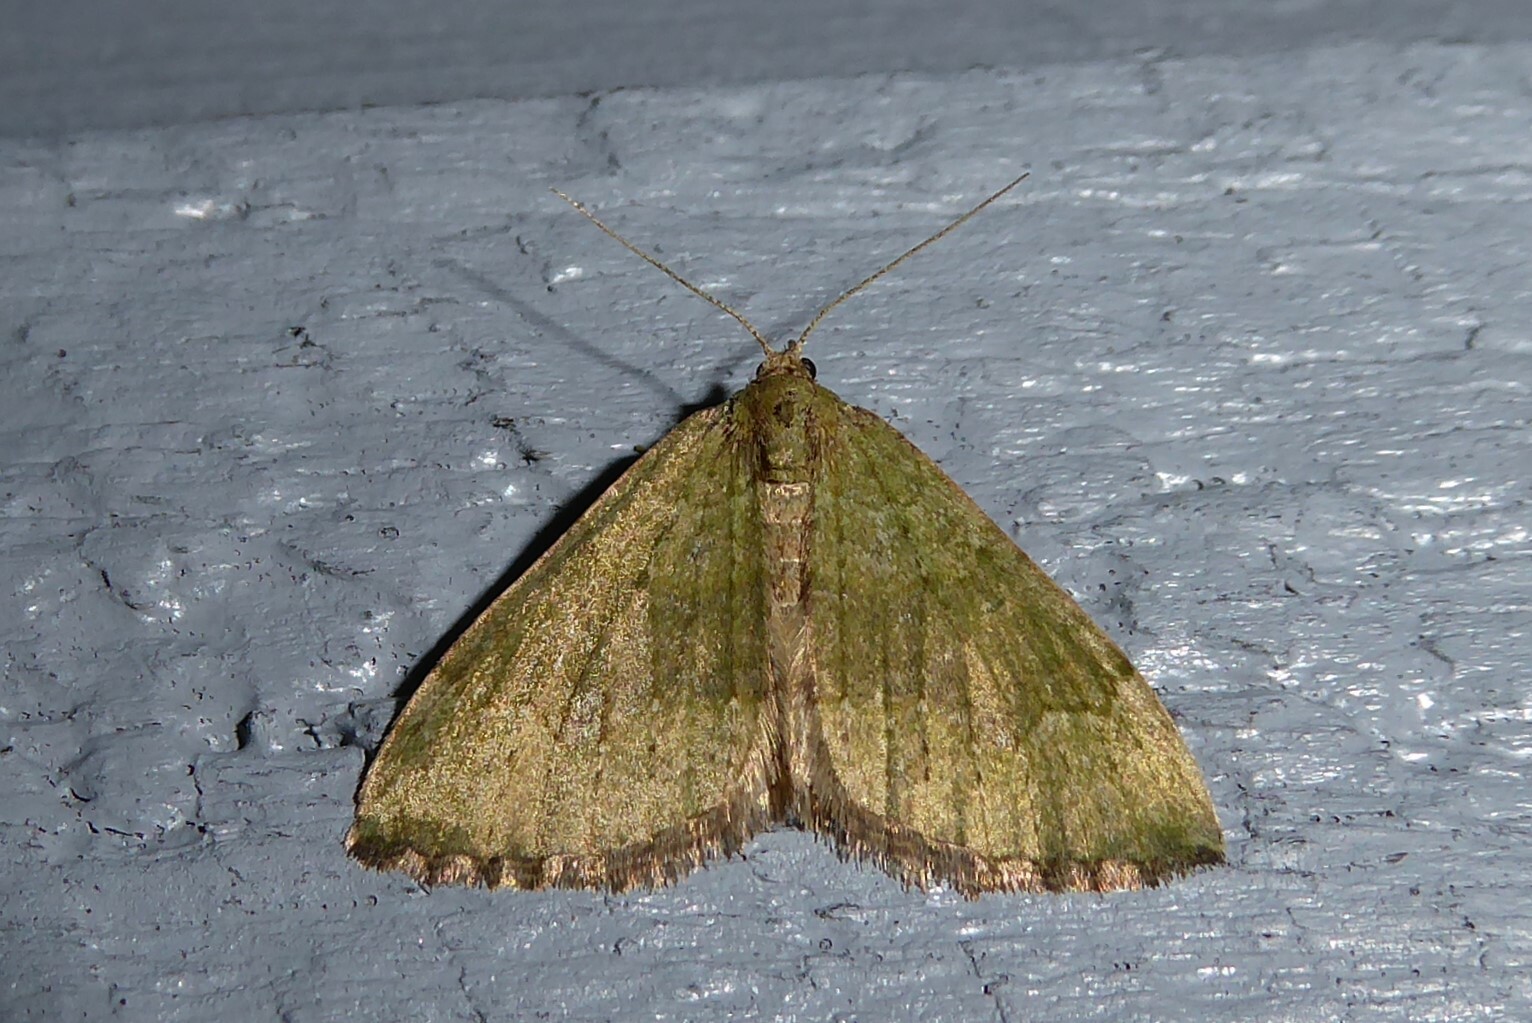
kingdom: Animalia
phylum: Arthropoda
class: Insecta
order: Lepidoptera
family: Geometridae
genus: Epyaxa
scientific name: Epyaxa rosearia
